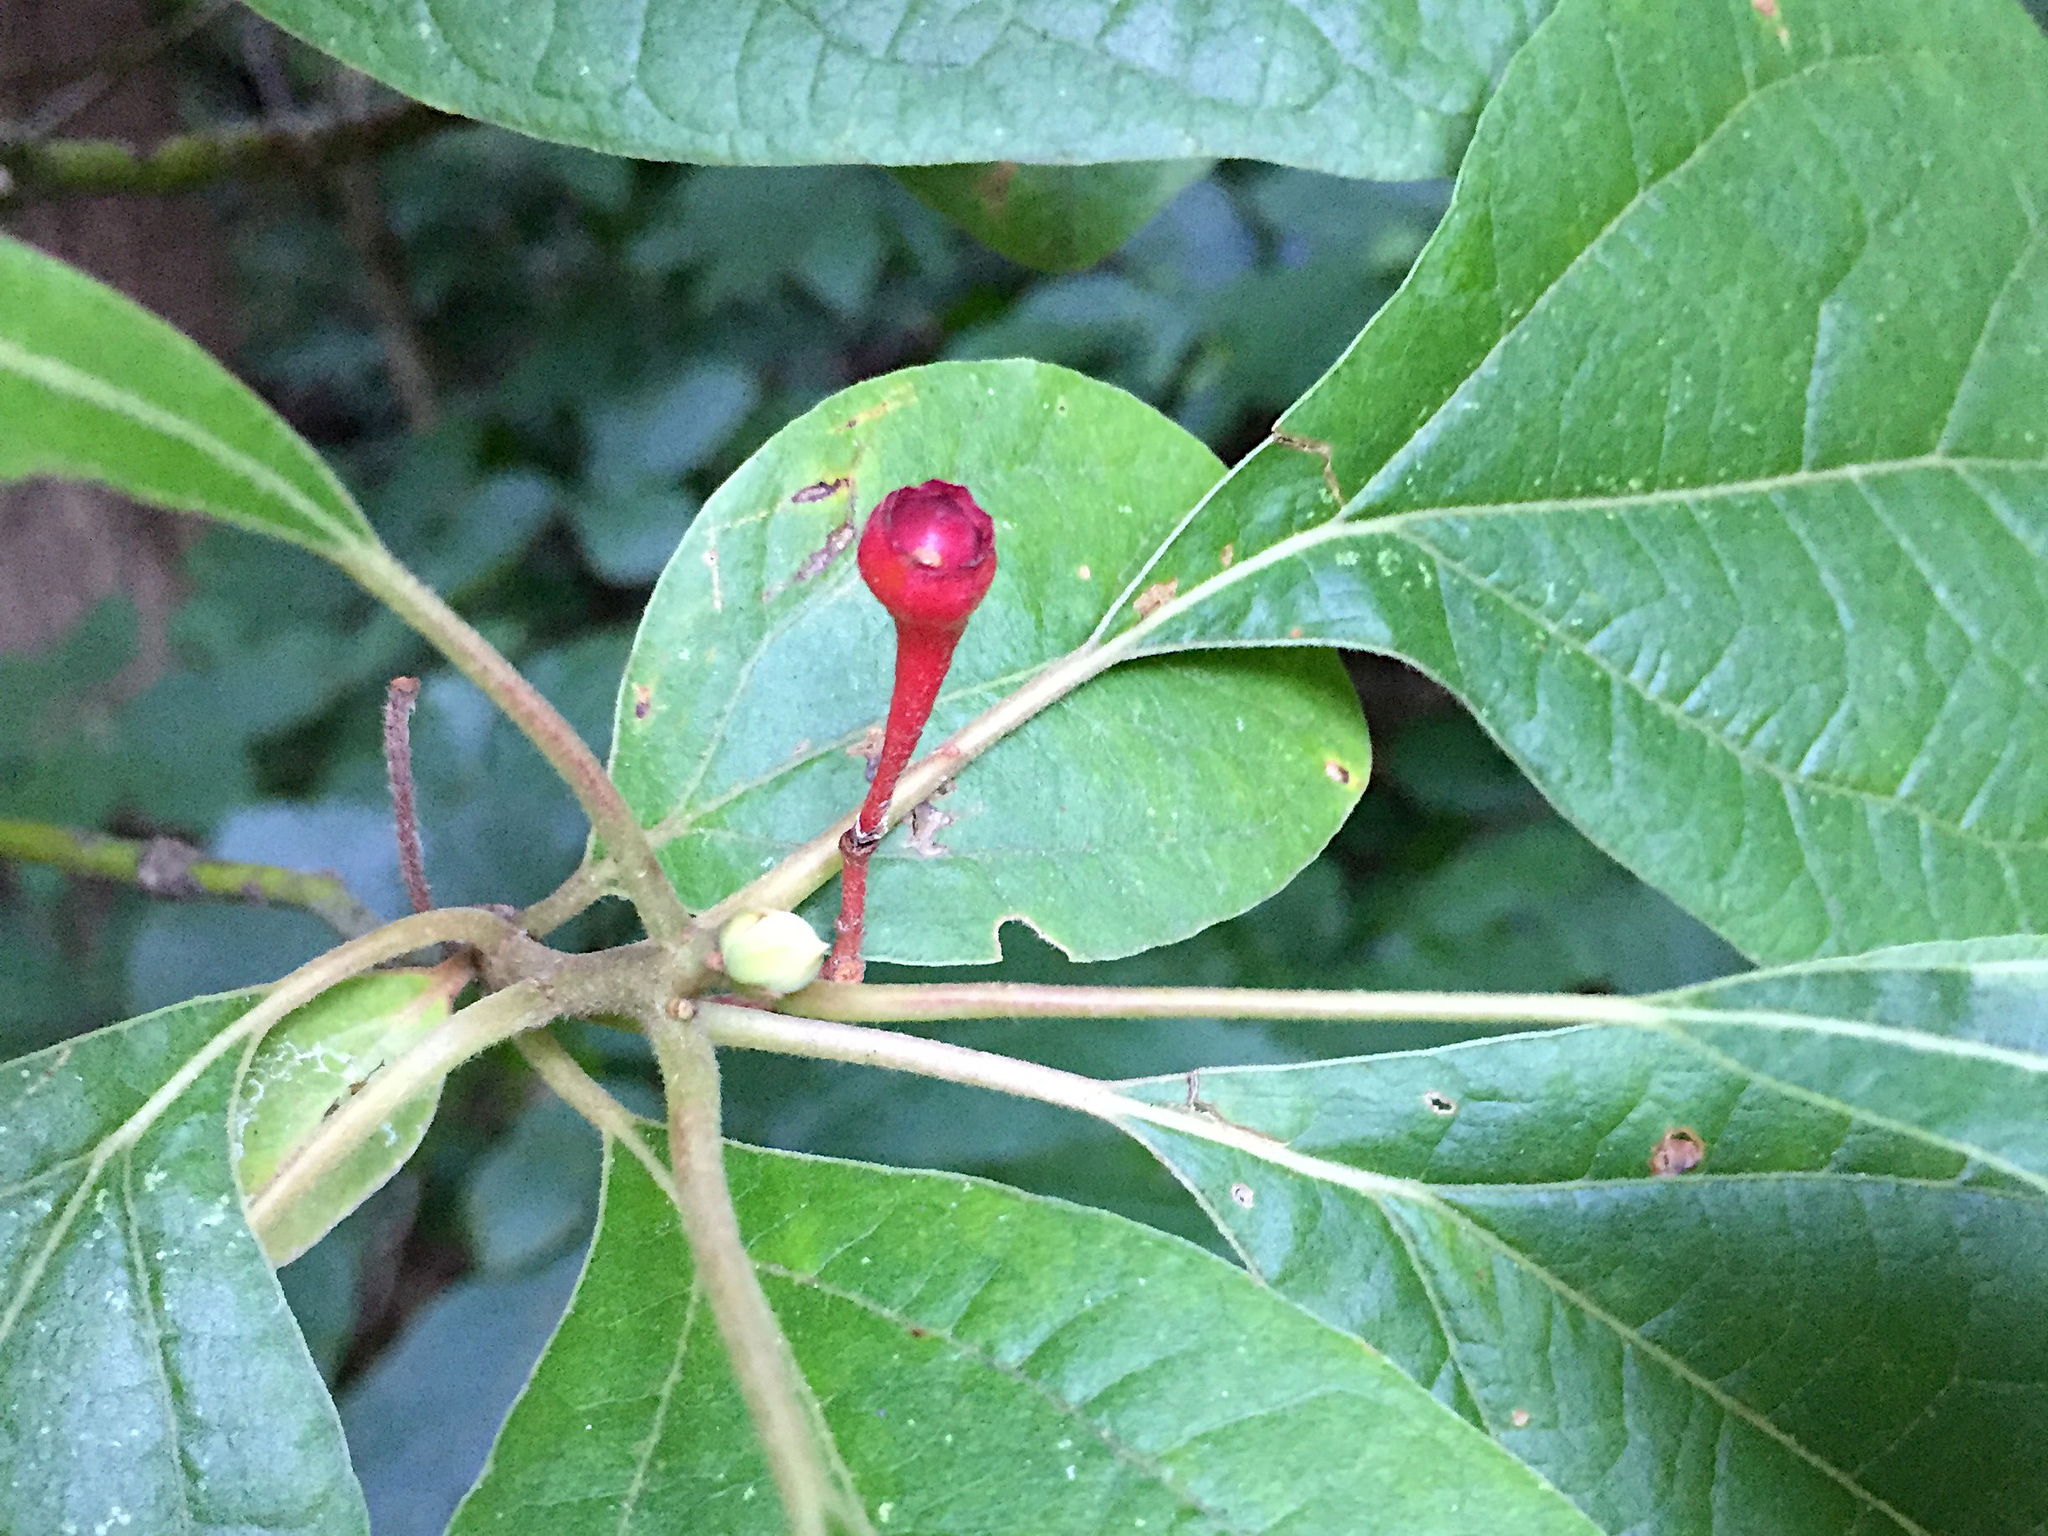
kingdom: Plantae
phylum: Tracheophyta
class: Magnoliopsida
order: Laurales
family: Lauraceae
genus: Sassafras
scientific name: Sassafras albidum
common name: Sassafras
